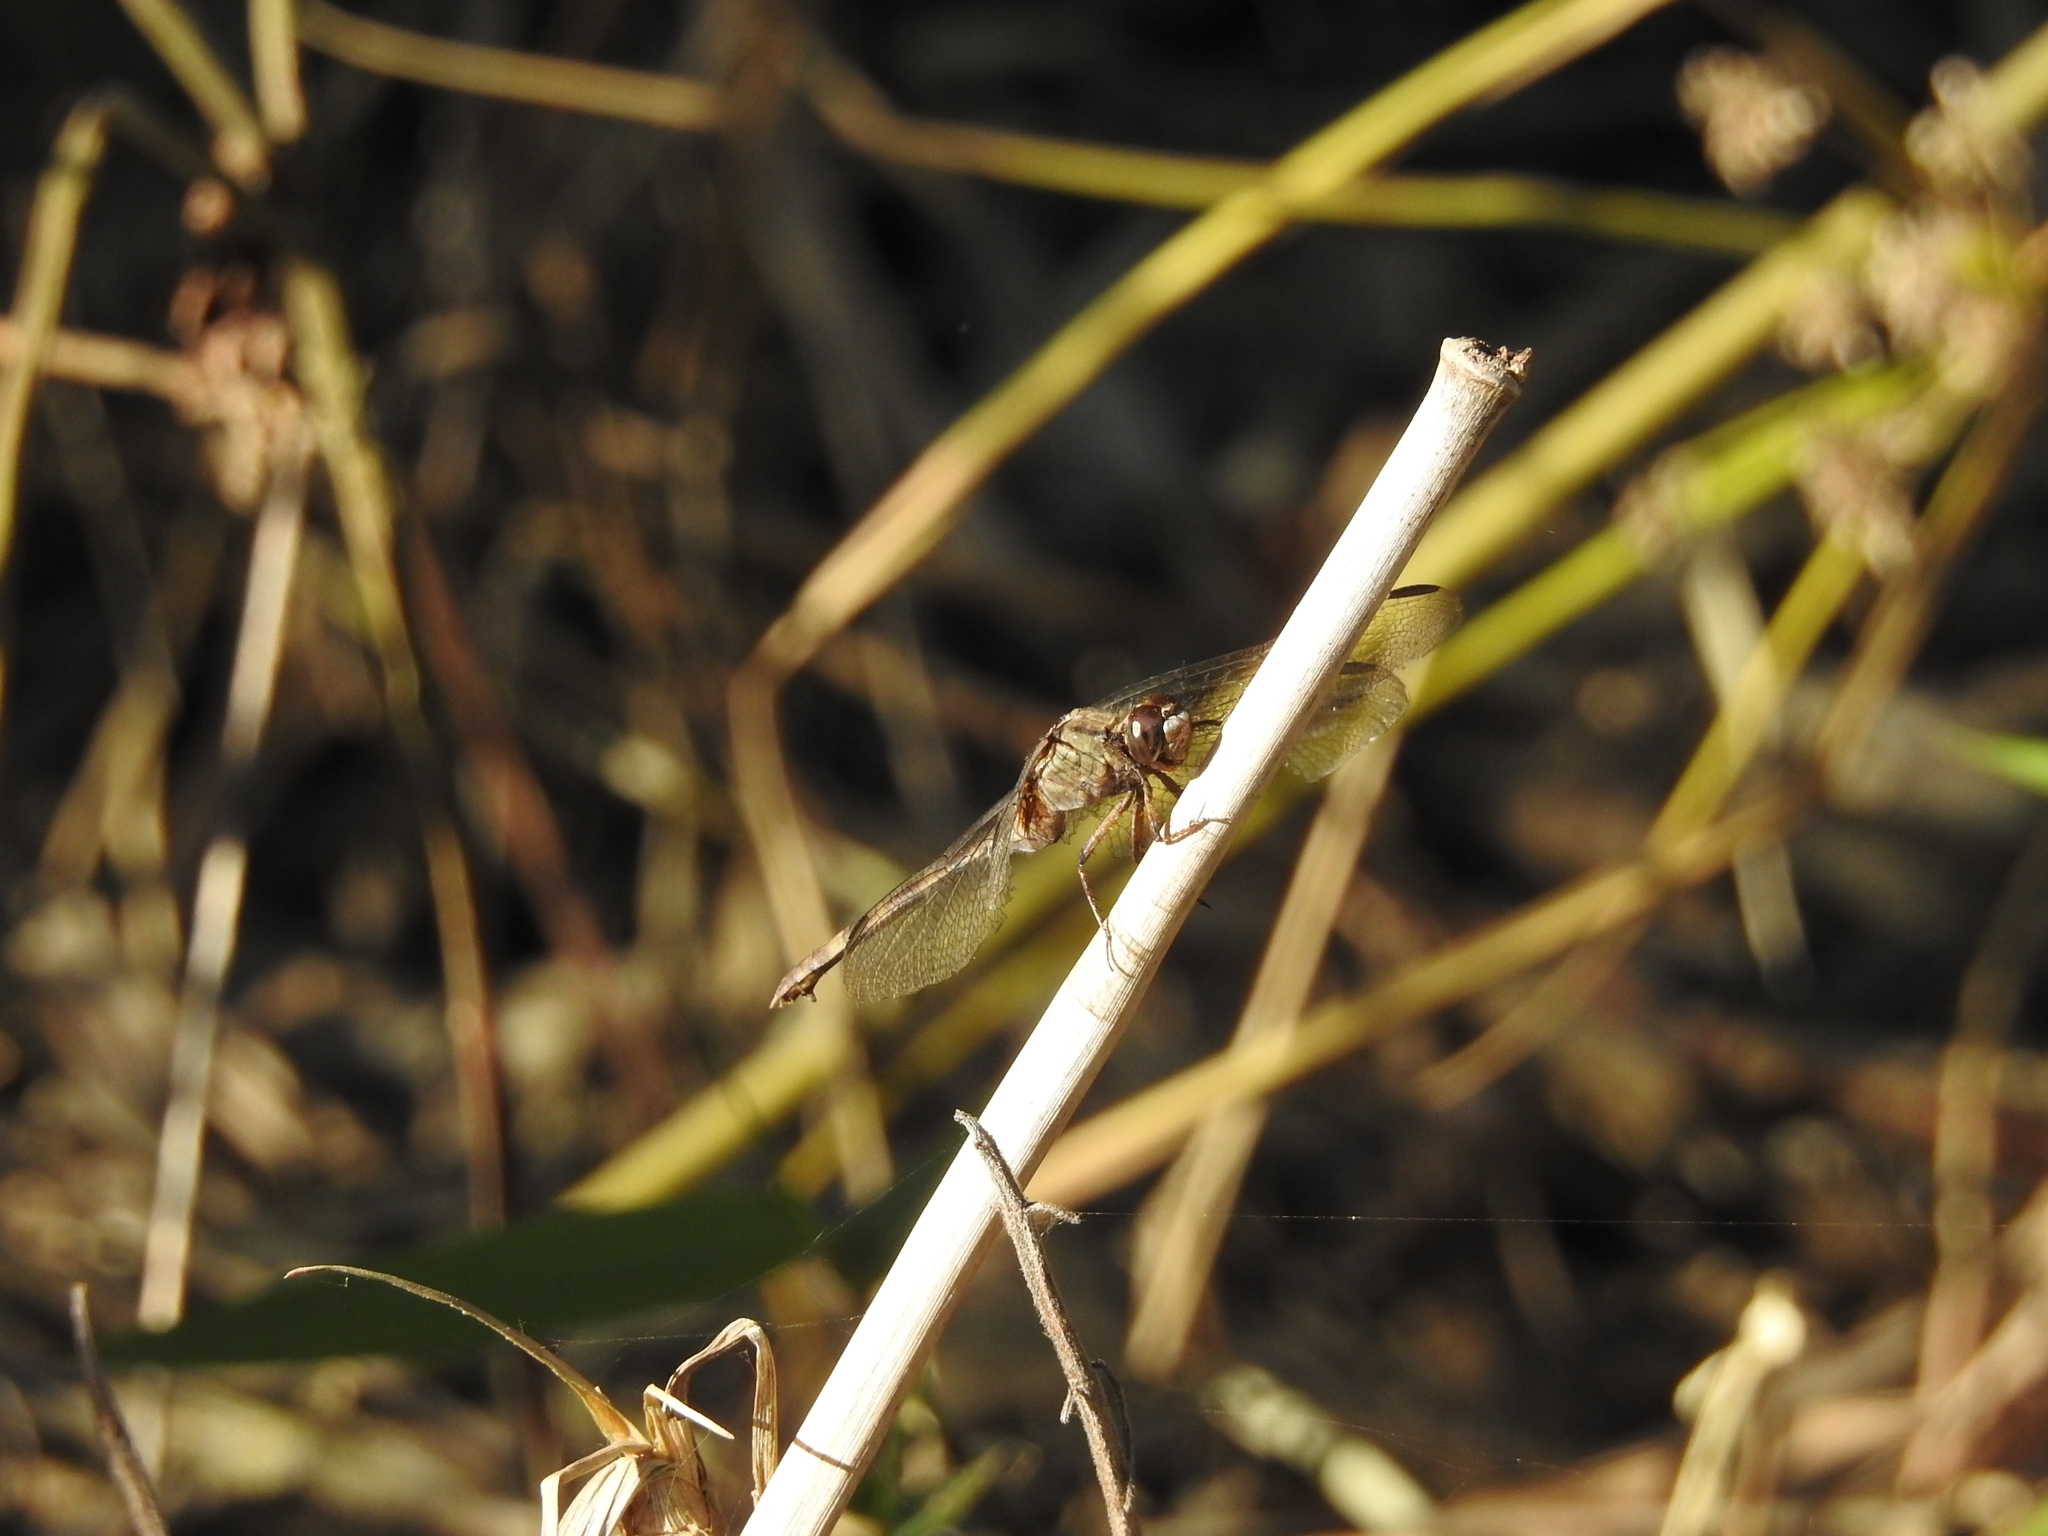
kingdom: Animalia
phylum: Arthropoda
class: Insecta
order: Odonata
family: Libellulidae
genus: Erythemis
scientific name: Erythemis plebeja
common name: Pin-tailed pondhawk
